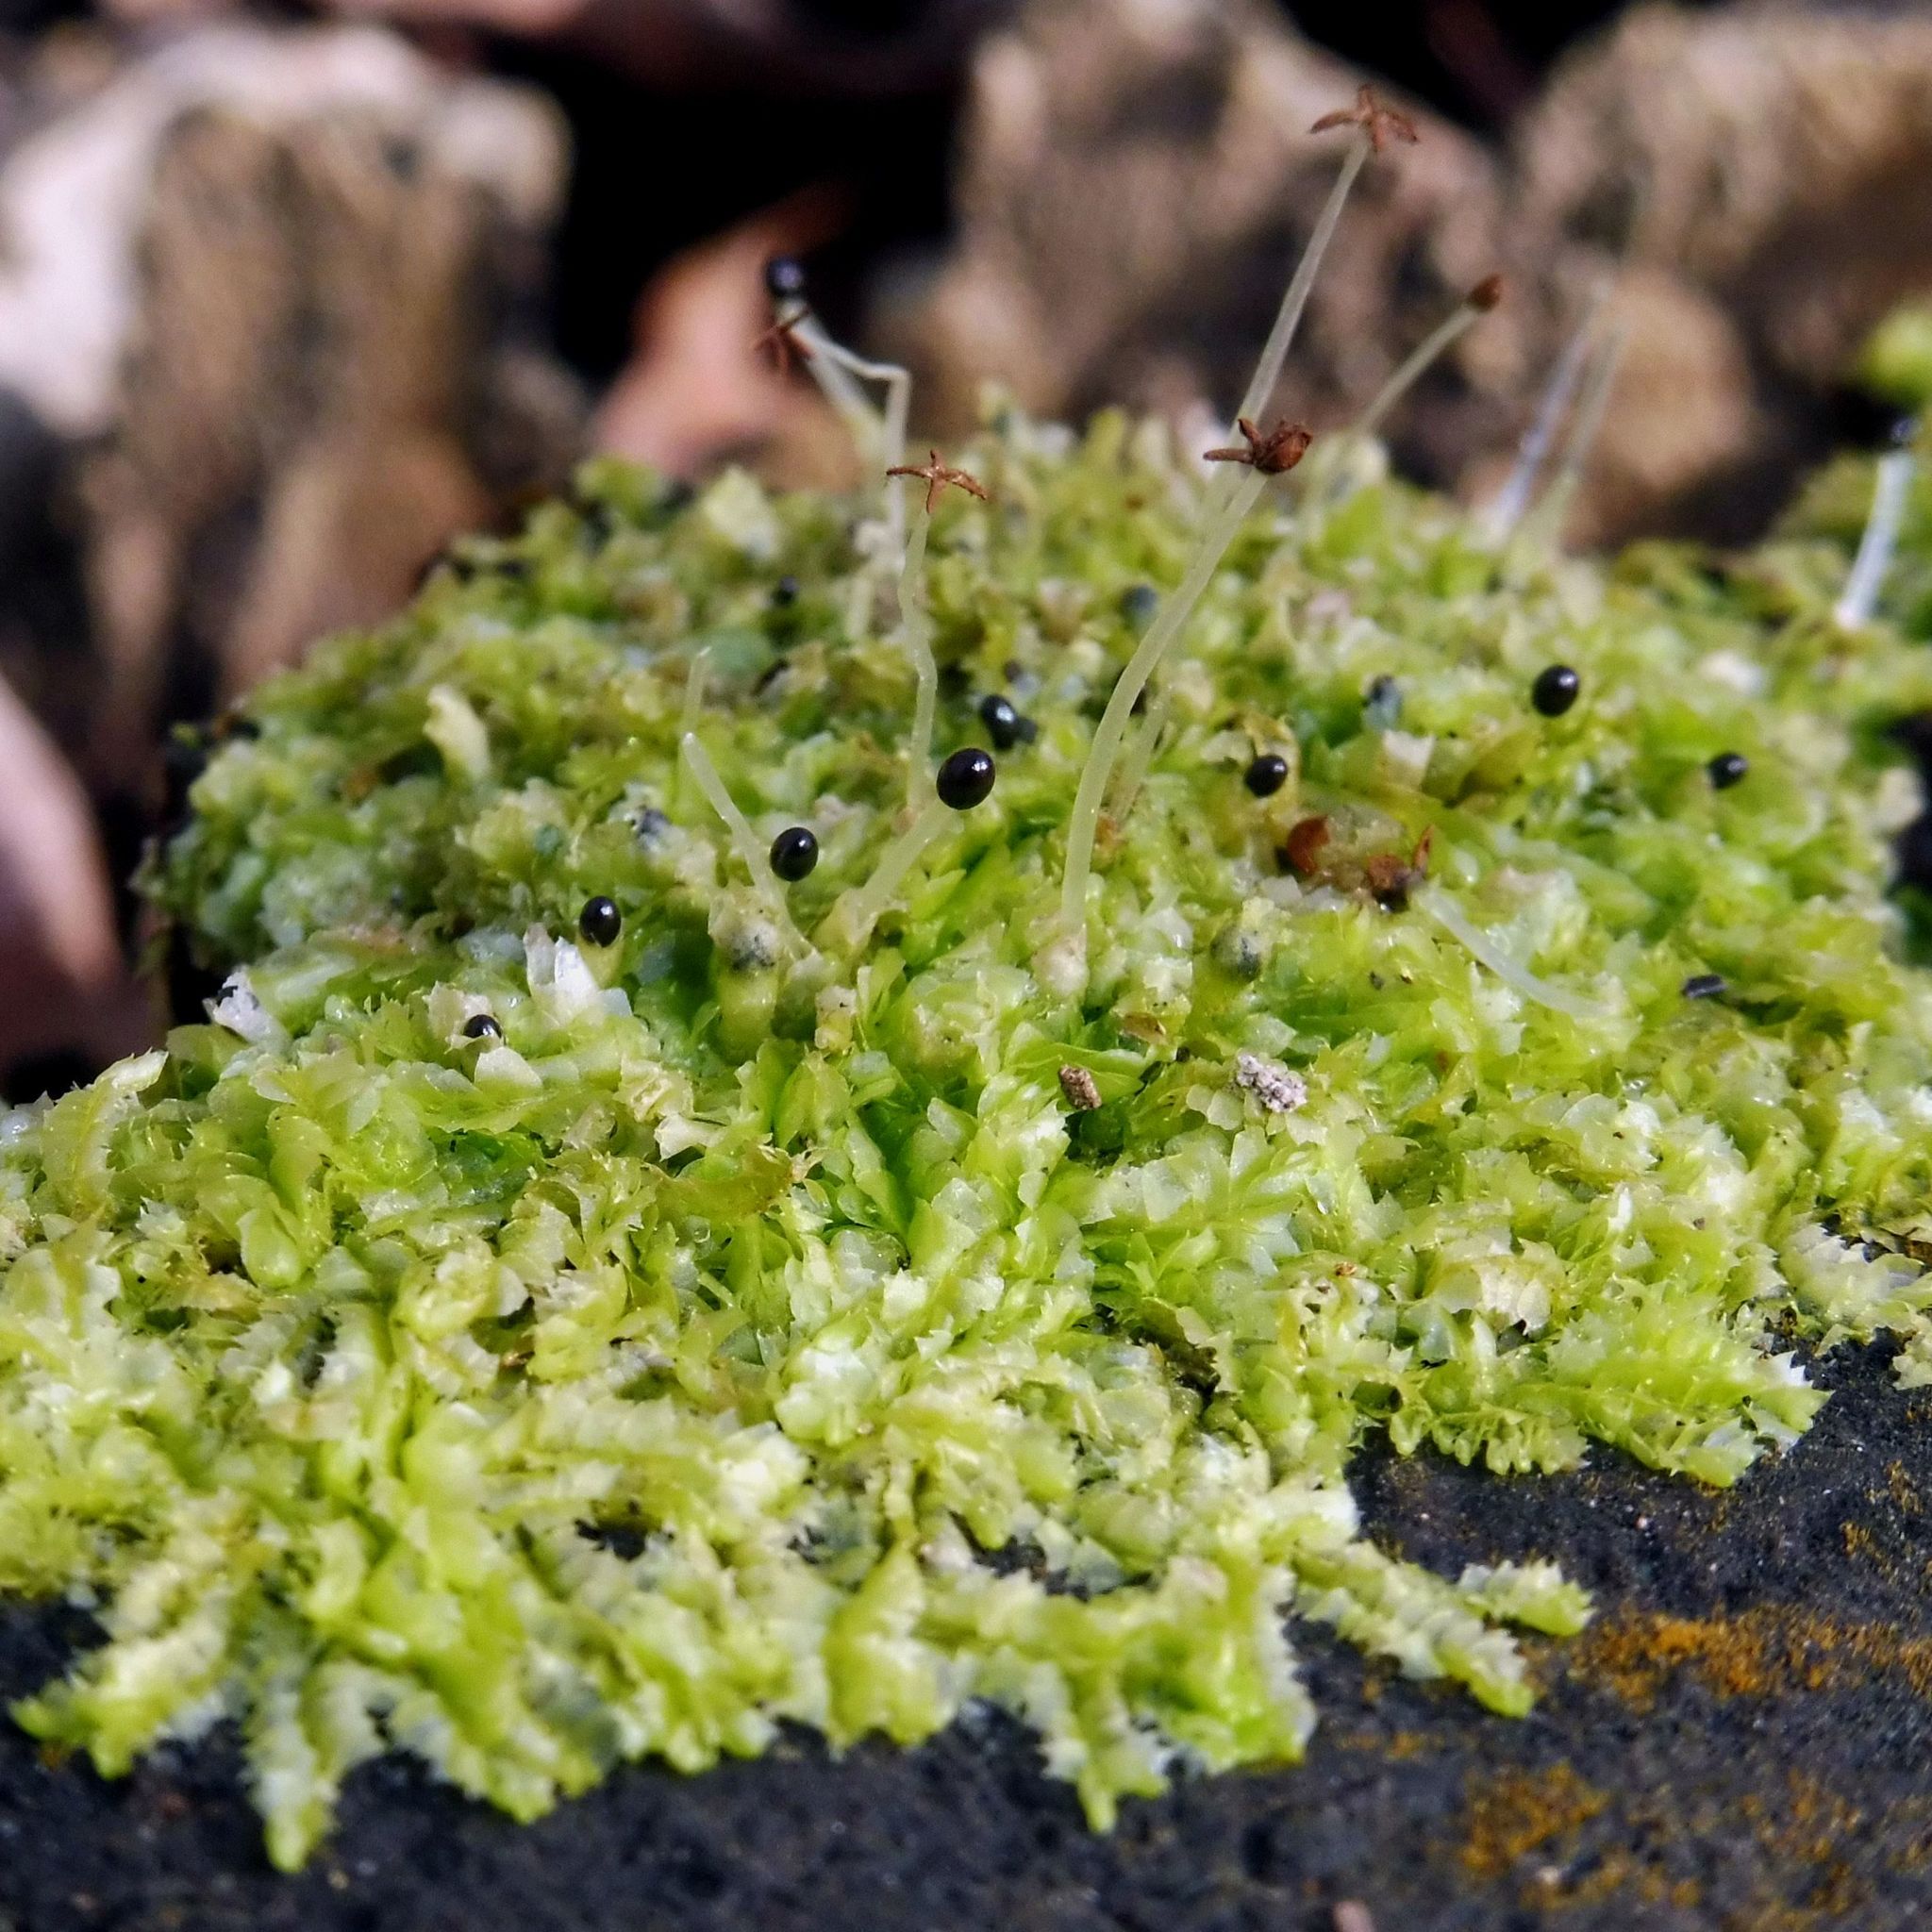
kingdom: Plantae
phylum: Marchantiophyta
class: Jungermanniopsida
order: Jungermanniales
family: Lophocoleaceae
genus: Lophocolea
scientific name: Lophocolea bidentata
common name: Bifid crestwort
